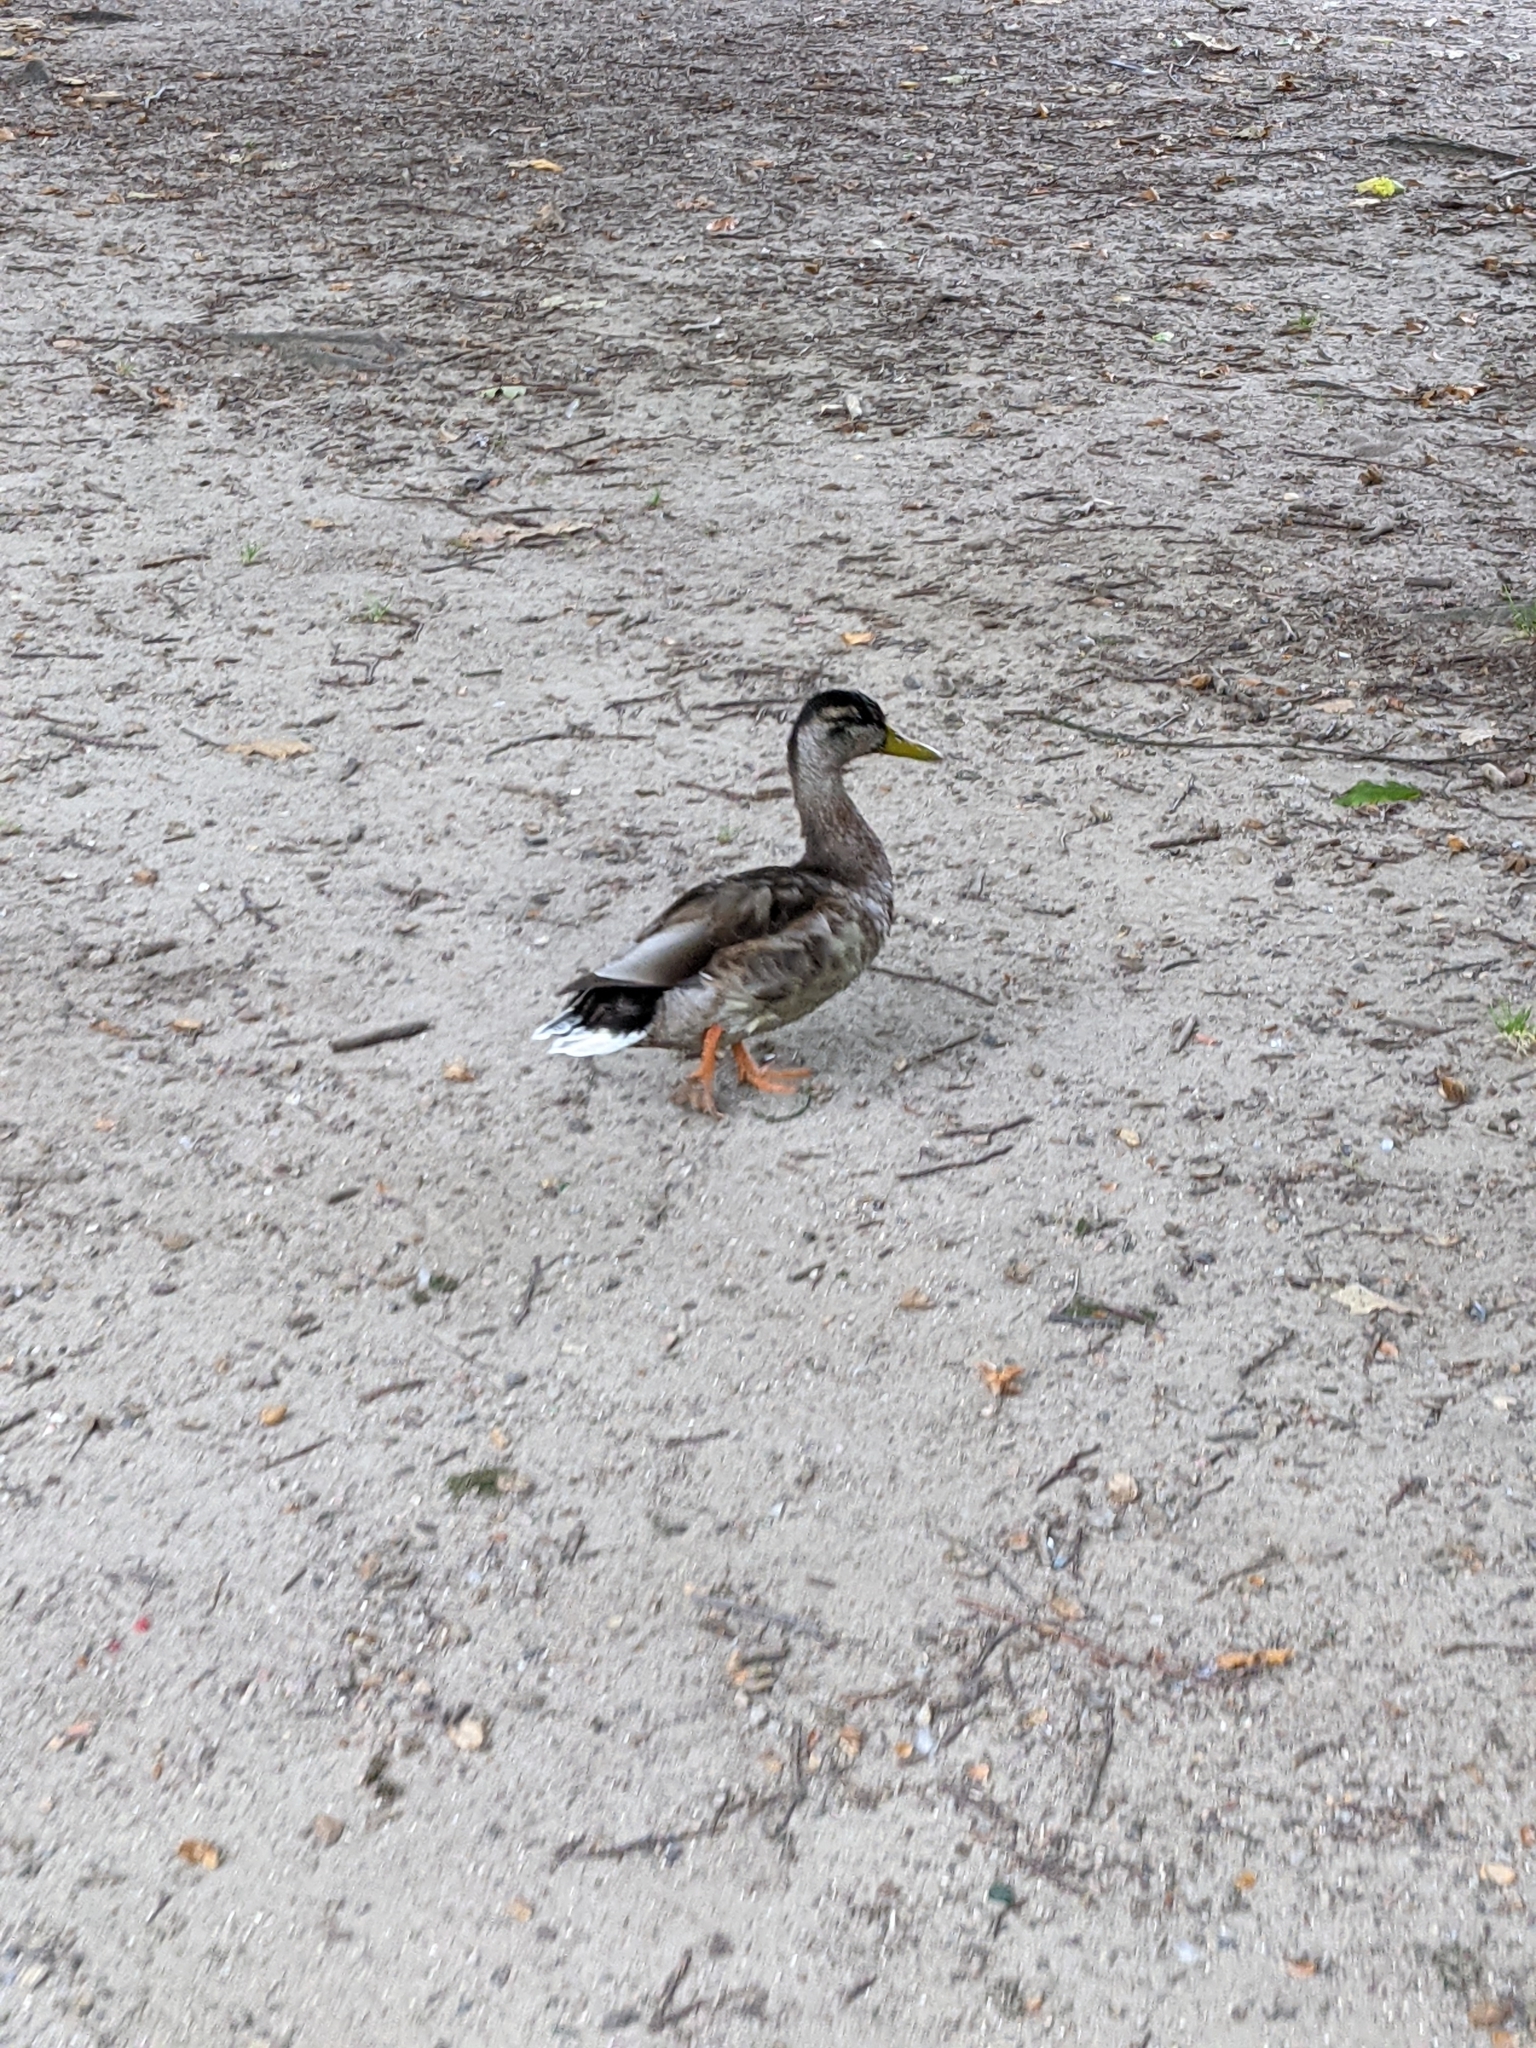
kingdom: Animalia
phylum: Chordata
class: Aves
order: Anseriformes
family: Anatidae
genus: Anas
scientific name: Anas platyrhynchos
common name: Mallard
